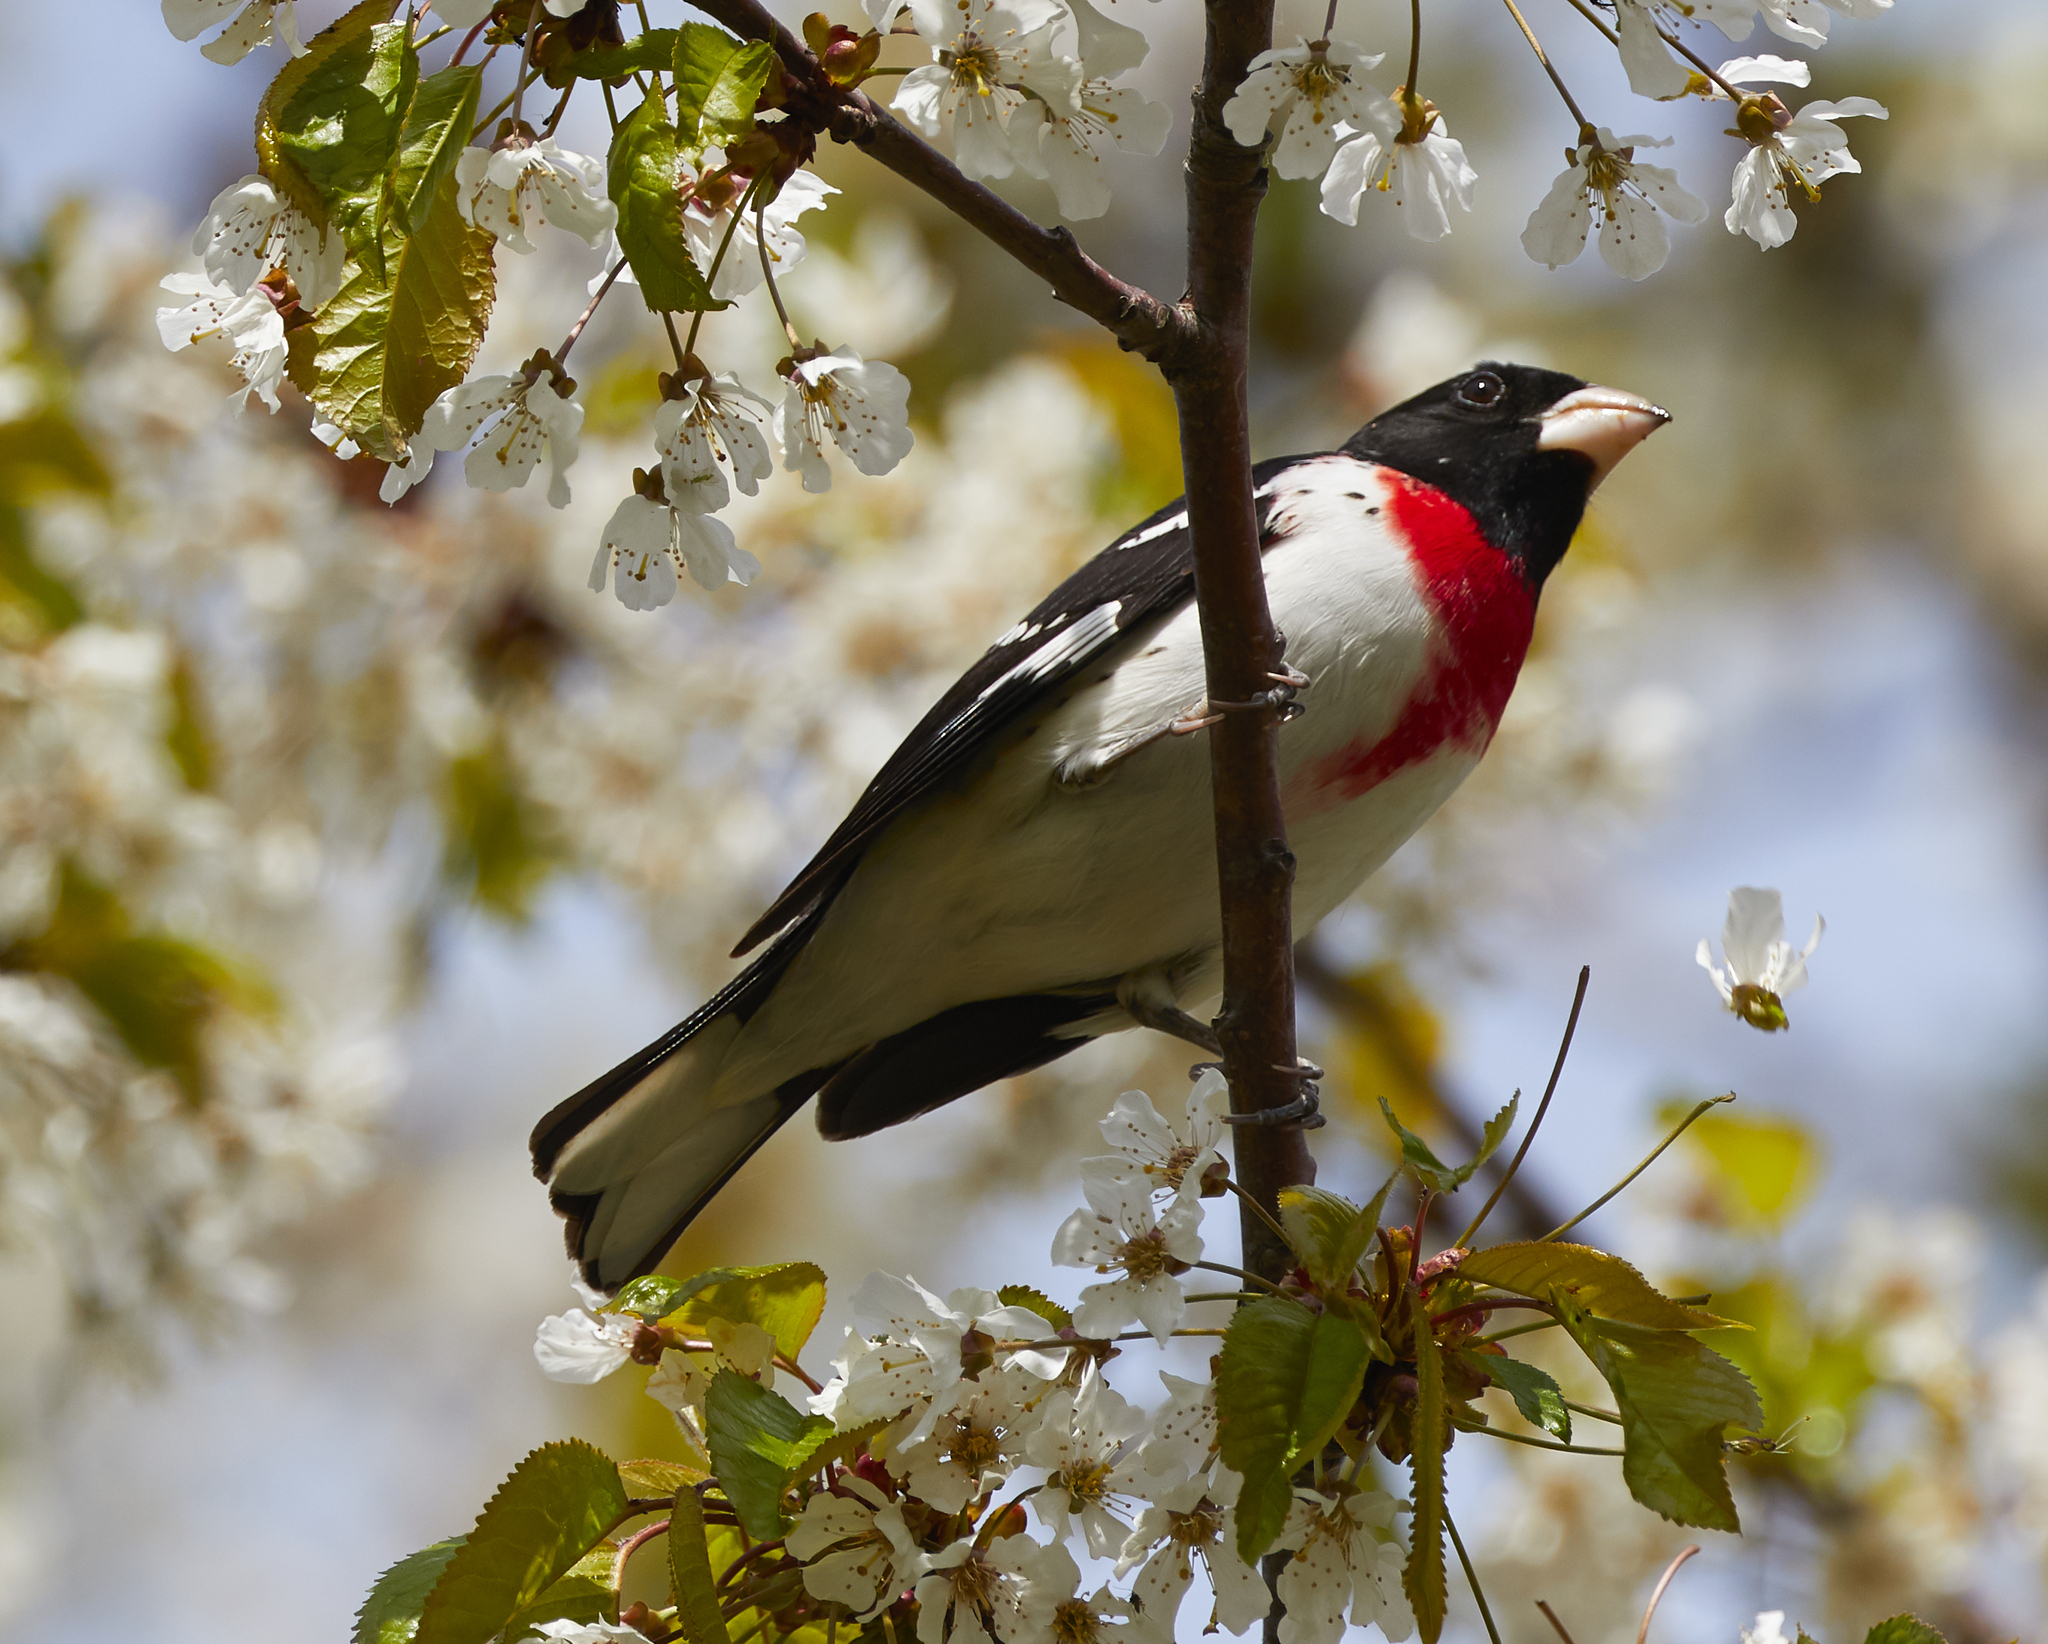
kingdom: Animalia
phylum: Chordata
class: Aves
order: Passeriformes
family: Cardinalidae
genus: Pheucticus
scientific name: Pheucticus ludovicianus
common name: Rose-breasted grosbeak
